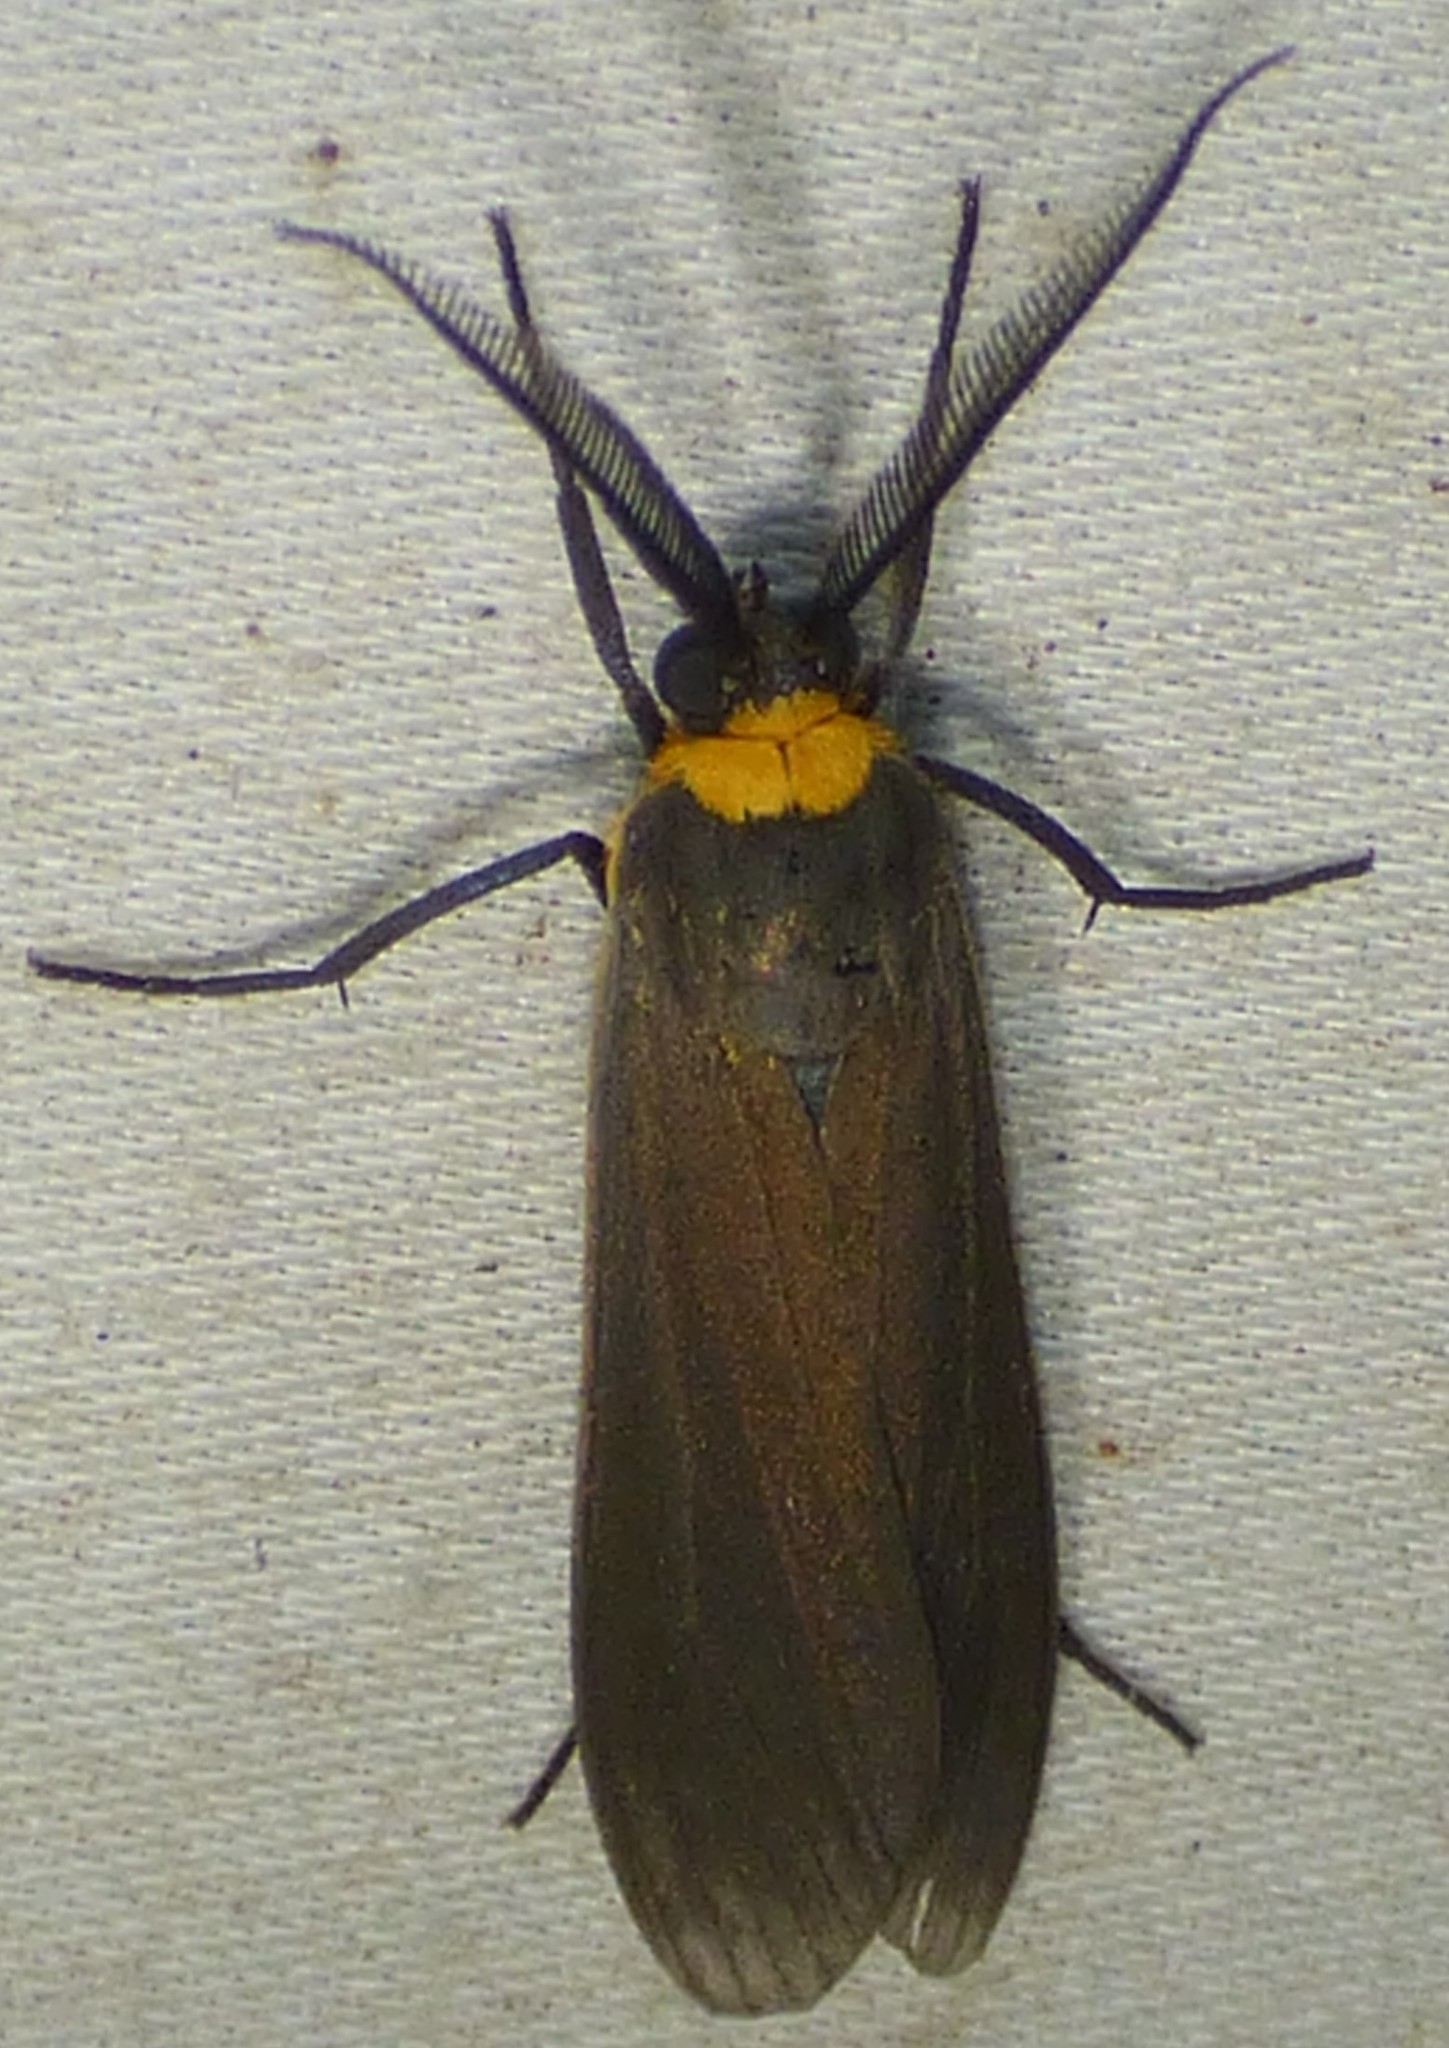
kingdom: Animalia
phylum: Arthropoda
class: Insecta
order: Lepidoptera
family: Erebidae
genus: Cisseps
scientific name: Cisseps fulvicollis
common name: Yellow-collared scape moth
